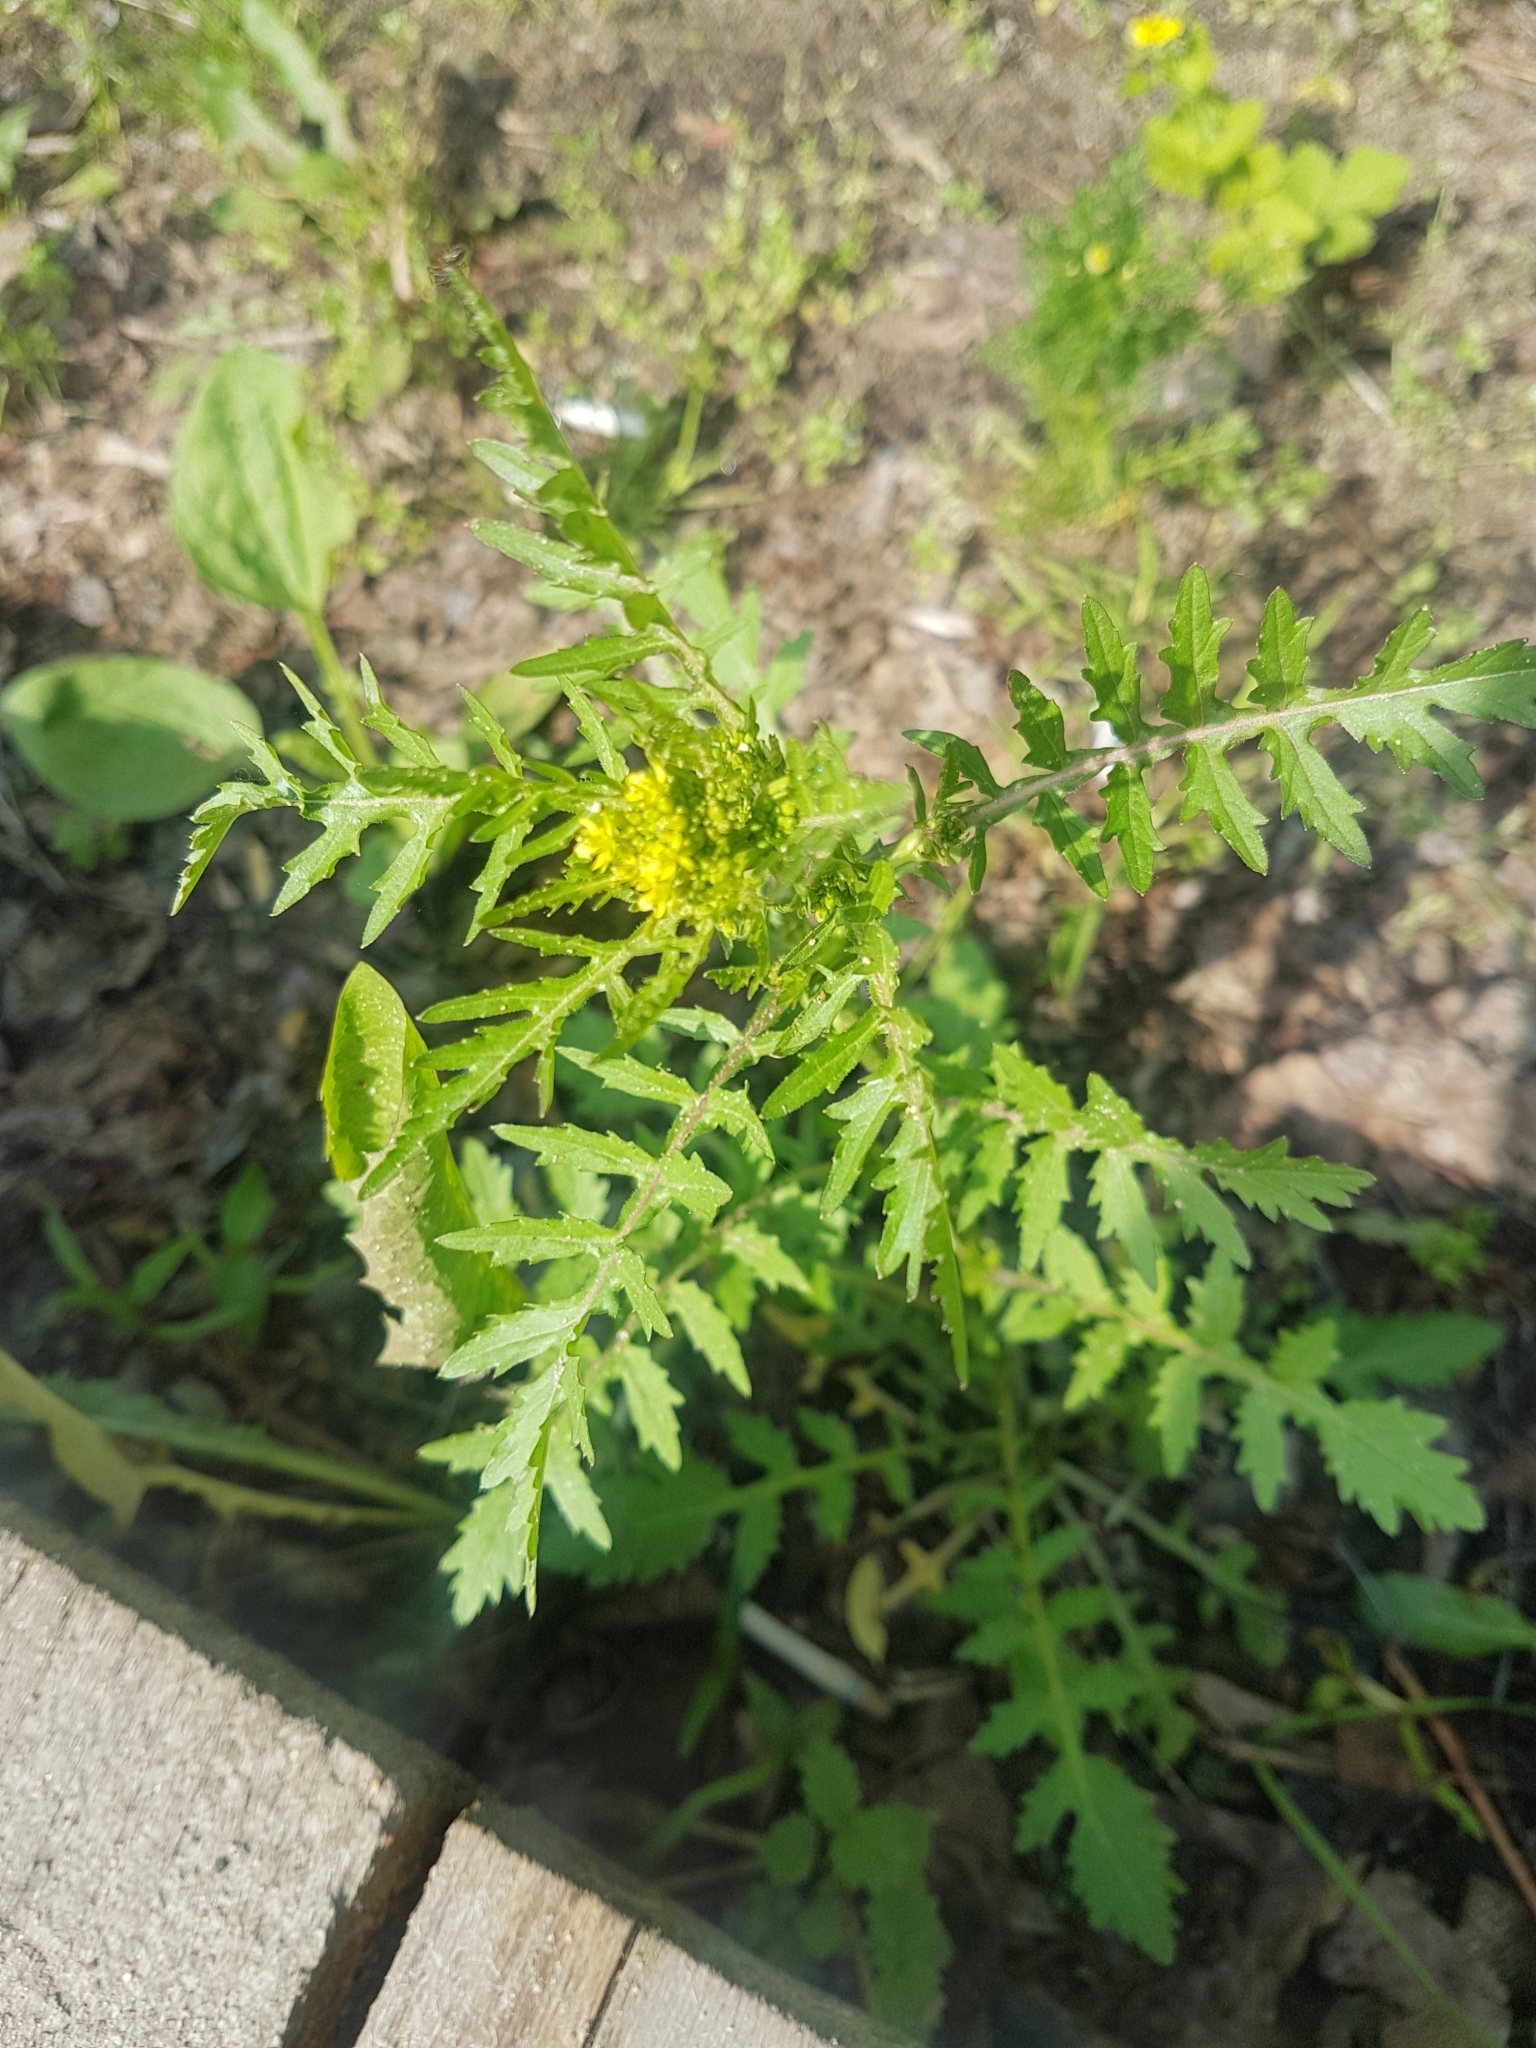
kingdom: Plantae
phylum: Tracheophyta
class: Magnoliopsida
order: Brassicales
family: Brassicaceae
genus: Rorippa
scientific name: Rorippa palustris
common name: Marsh yellow-cress
